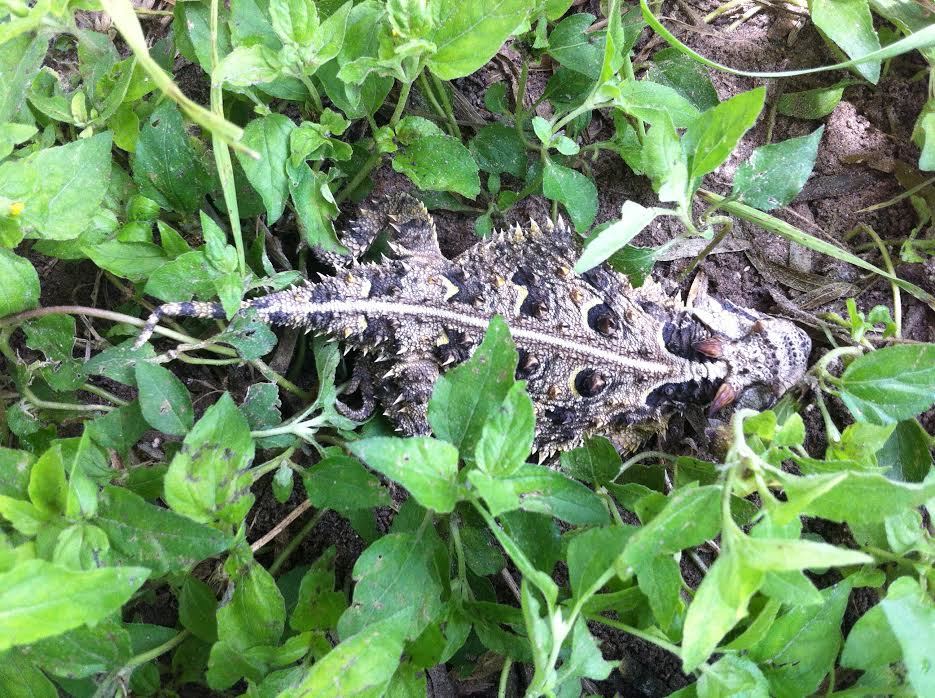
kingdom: Animalia
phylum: Chordata
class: Squamata
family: Phrynosomatidae
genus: Phrynosoma
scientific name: Phrynosoma cornutum
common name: Texas horned lizard
